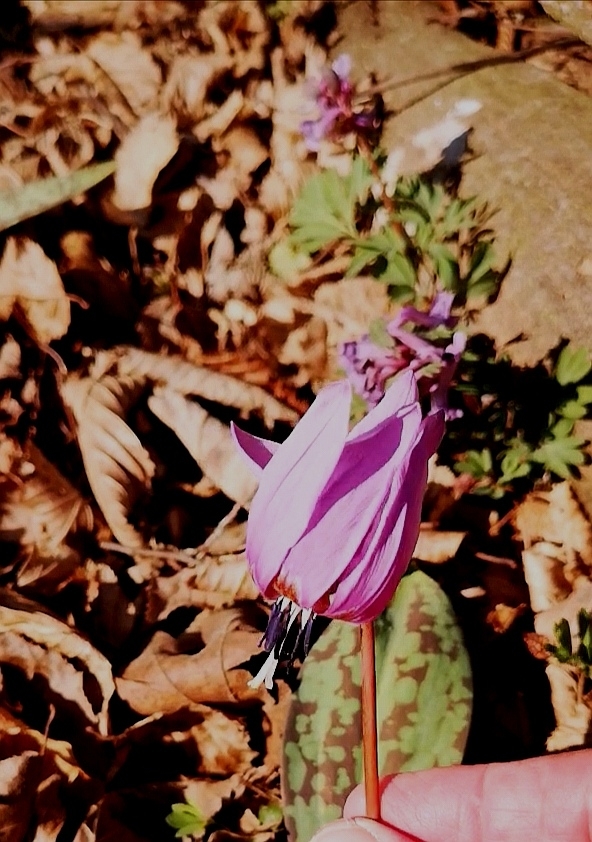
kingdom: Plantae
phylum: Tracheophyta
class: Liliopsida
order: Liliales
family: Liliaceae
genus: Erythronium
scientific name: Erythronium dens-canis
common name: Dog's-tooth-violet
